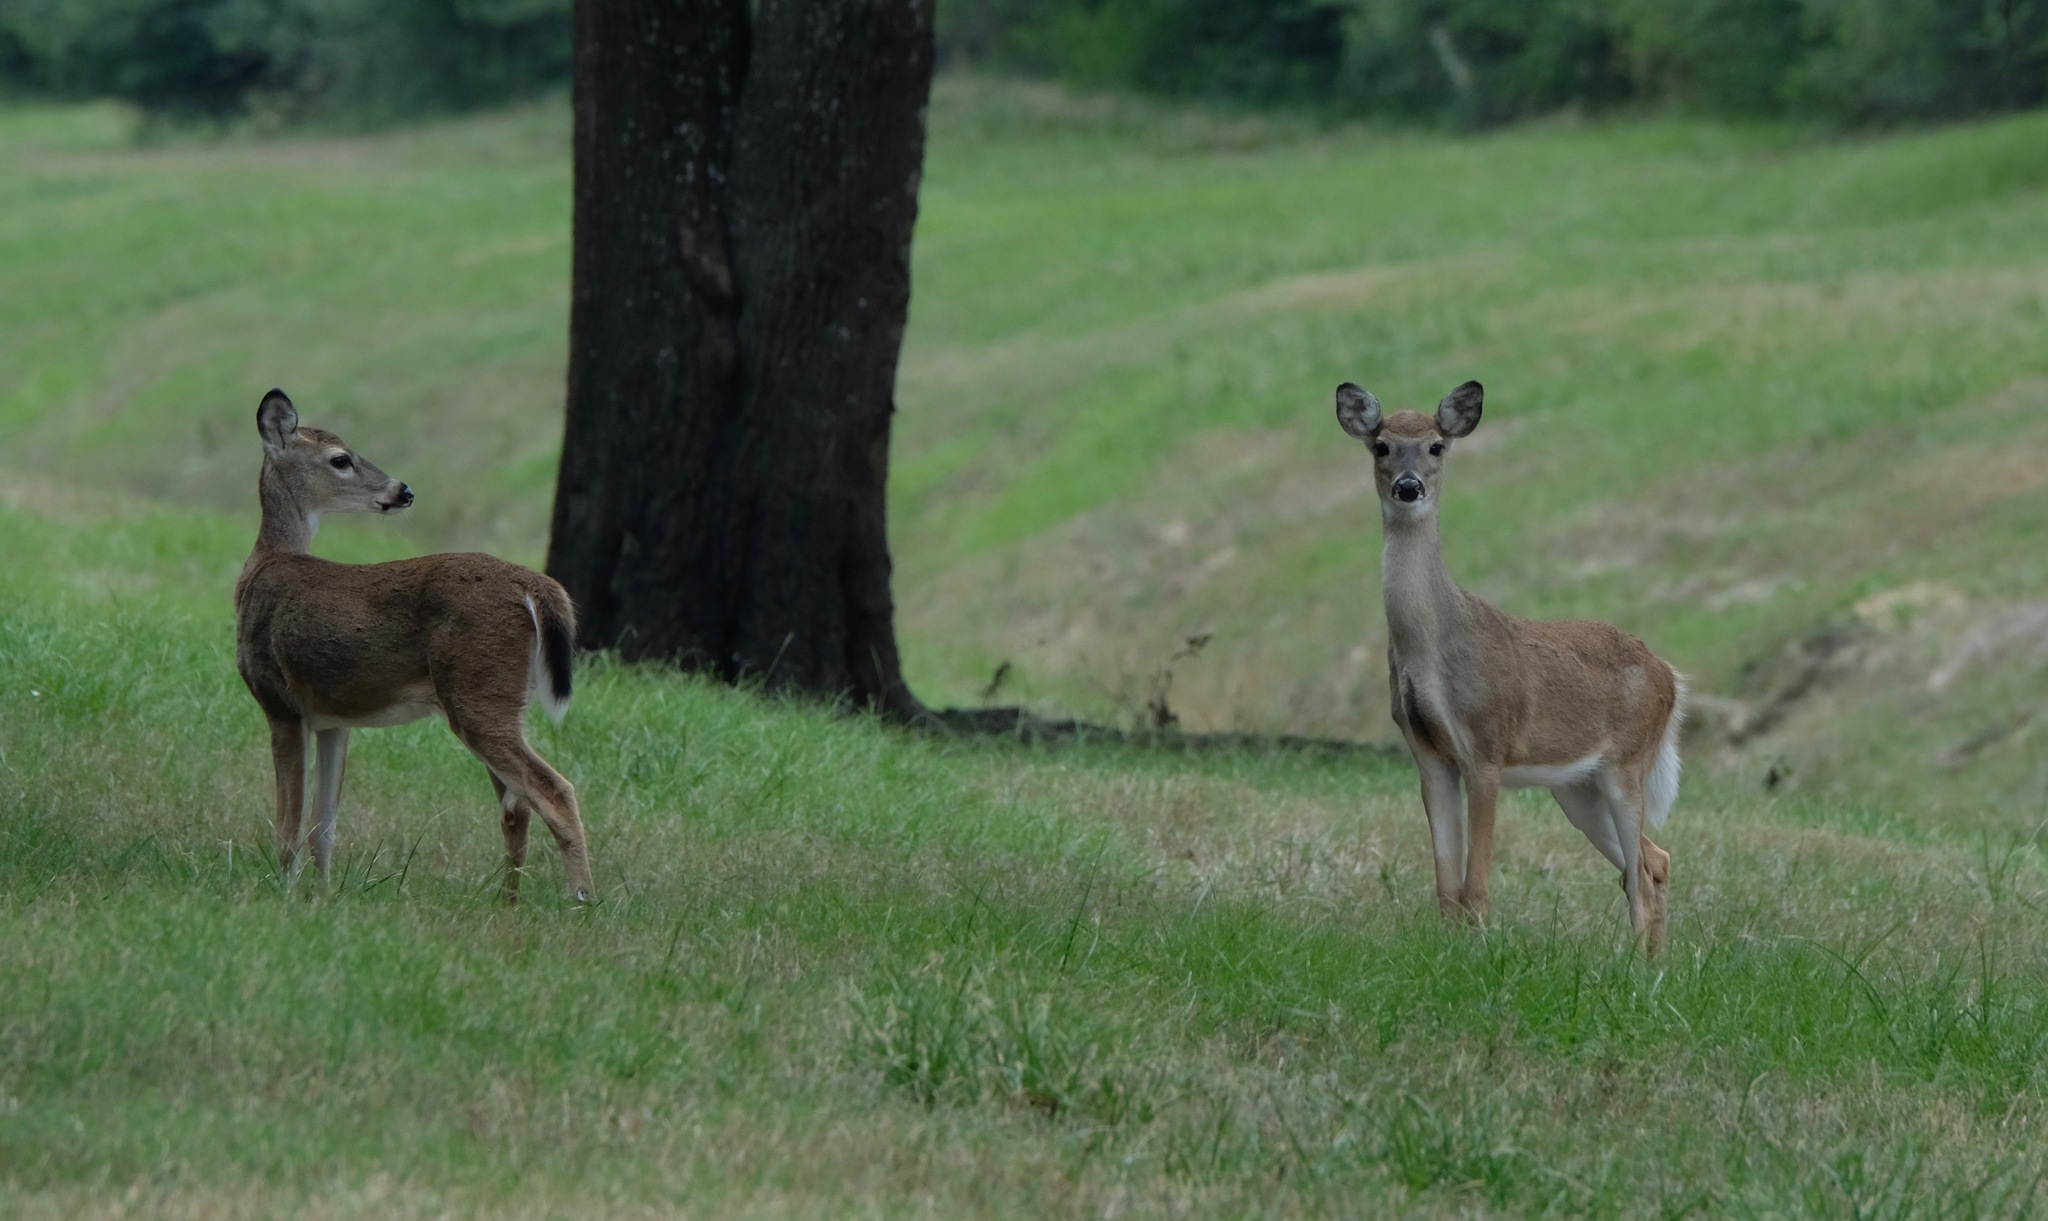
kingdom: Animalia
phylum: Chordata
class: Mammalia
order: Artiodactyla
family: Cervidae
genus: Odocoileus
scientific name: Odocoileus virginianus
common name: White-tailed deer
